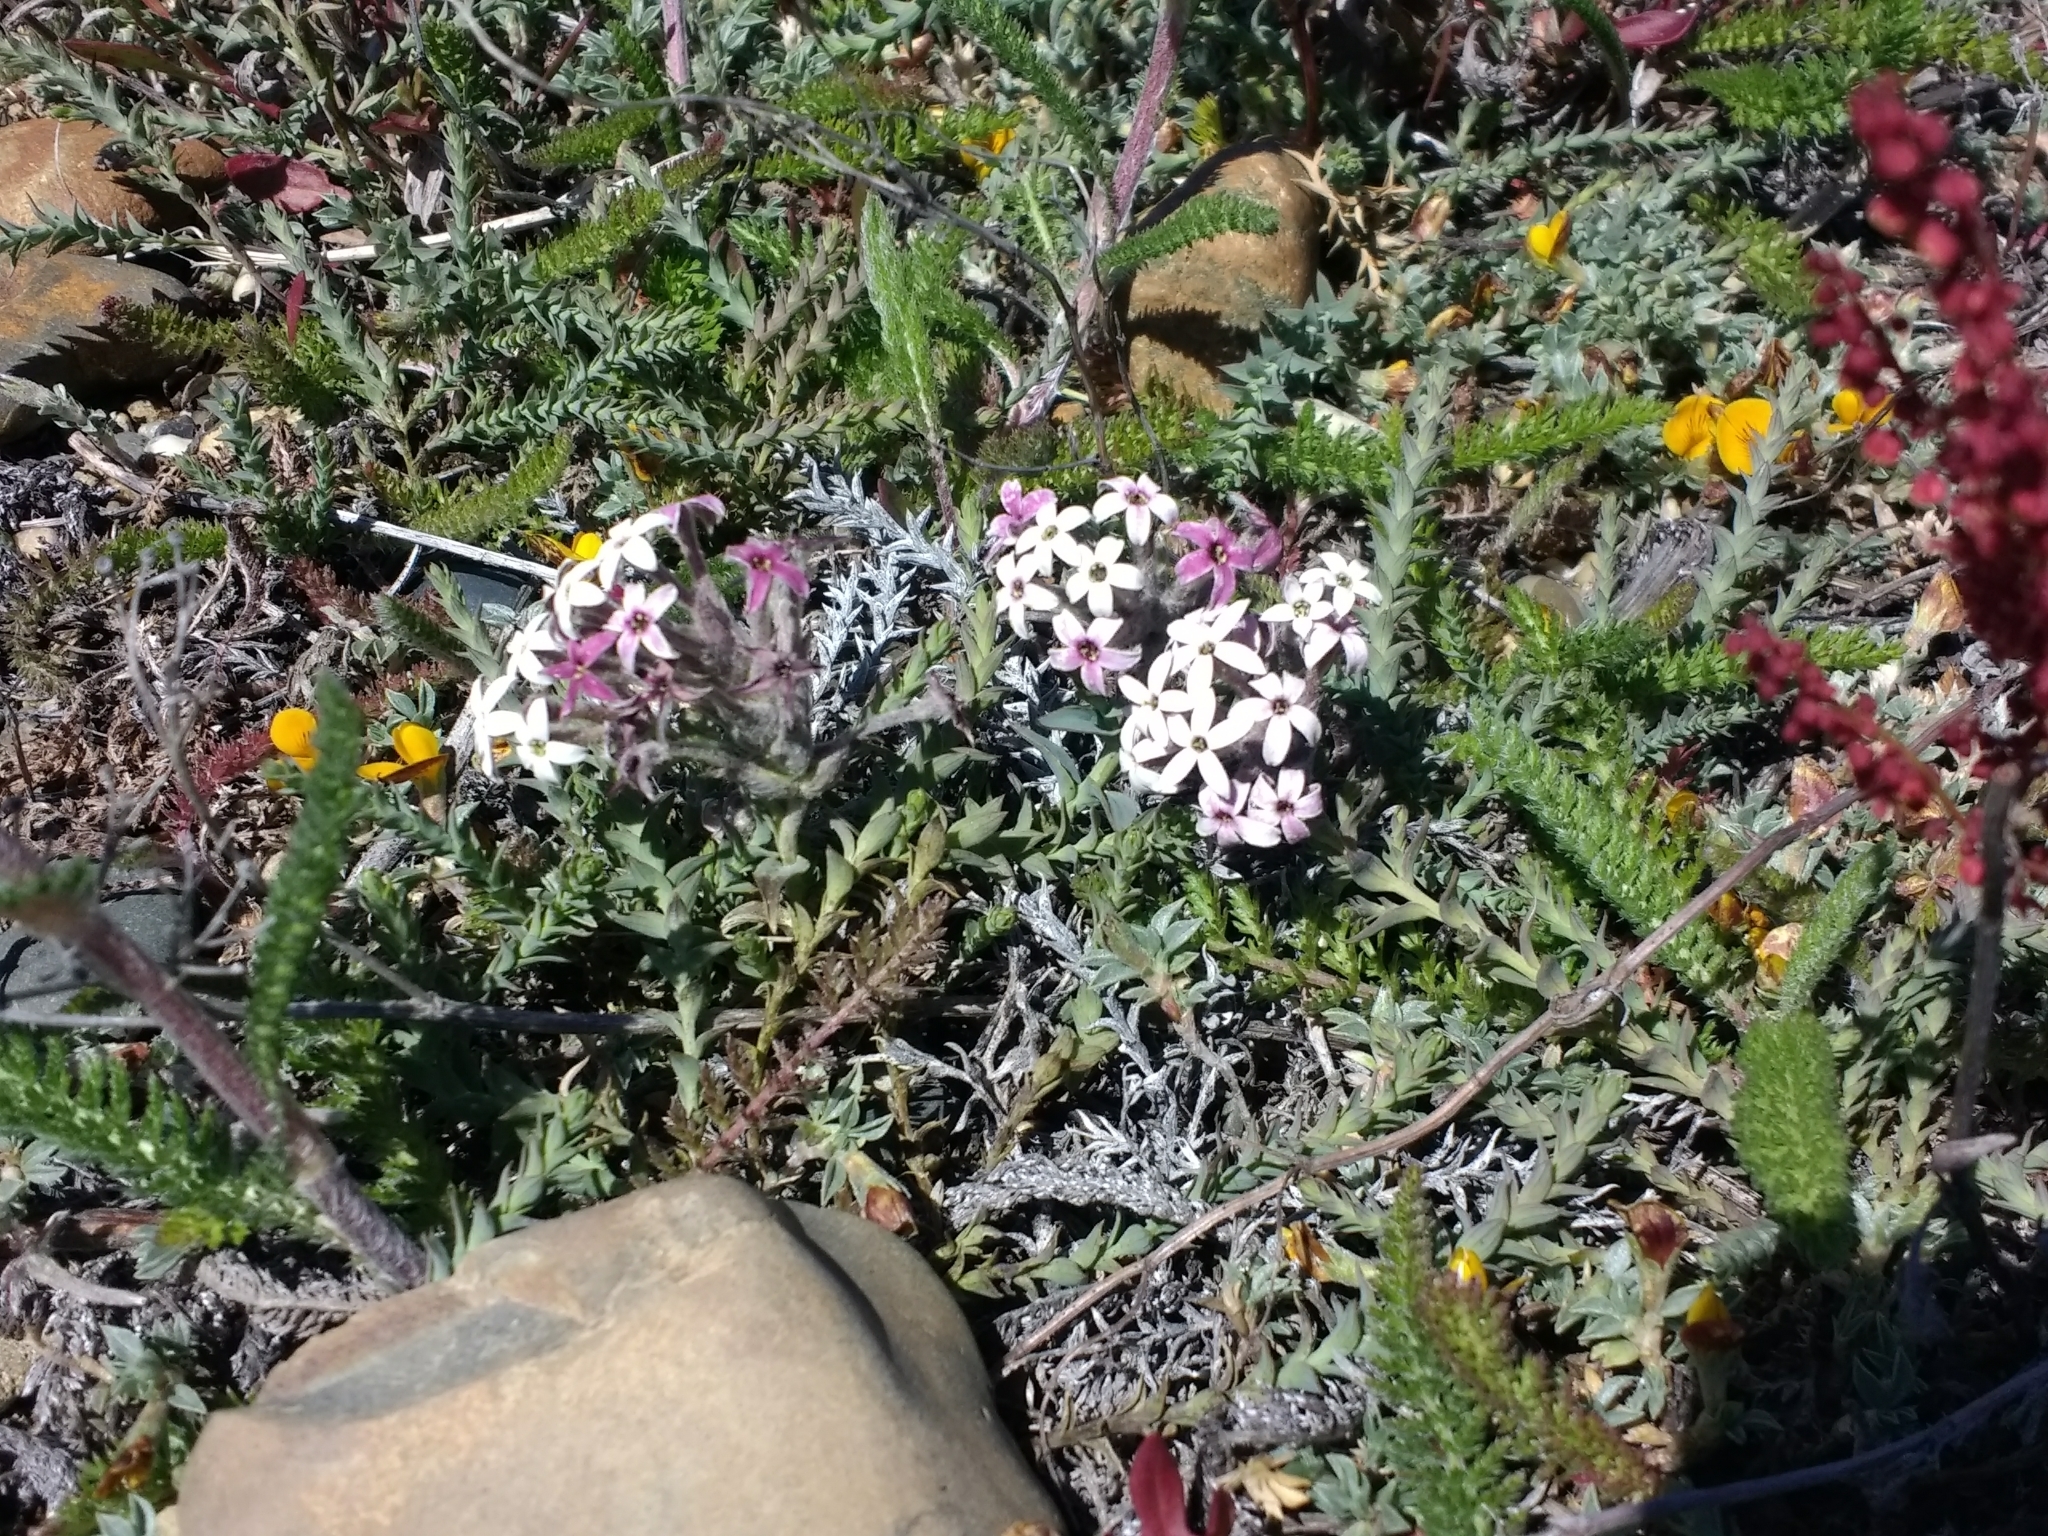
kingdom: Plantae
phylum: Tracheophyta
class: Magnoliopsida
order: Santalales
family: Schoepfiaceae
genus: Arjona
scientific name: Arjona patagonica
